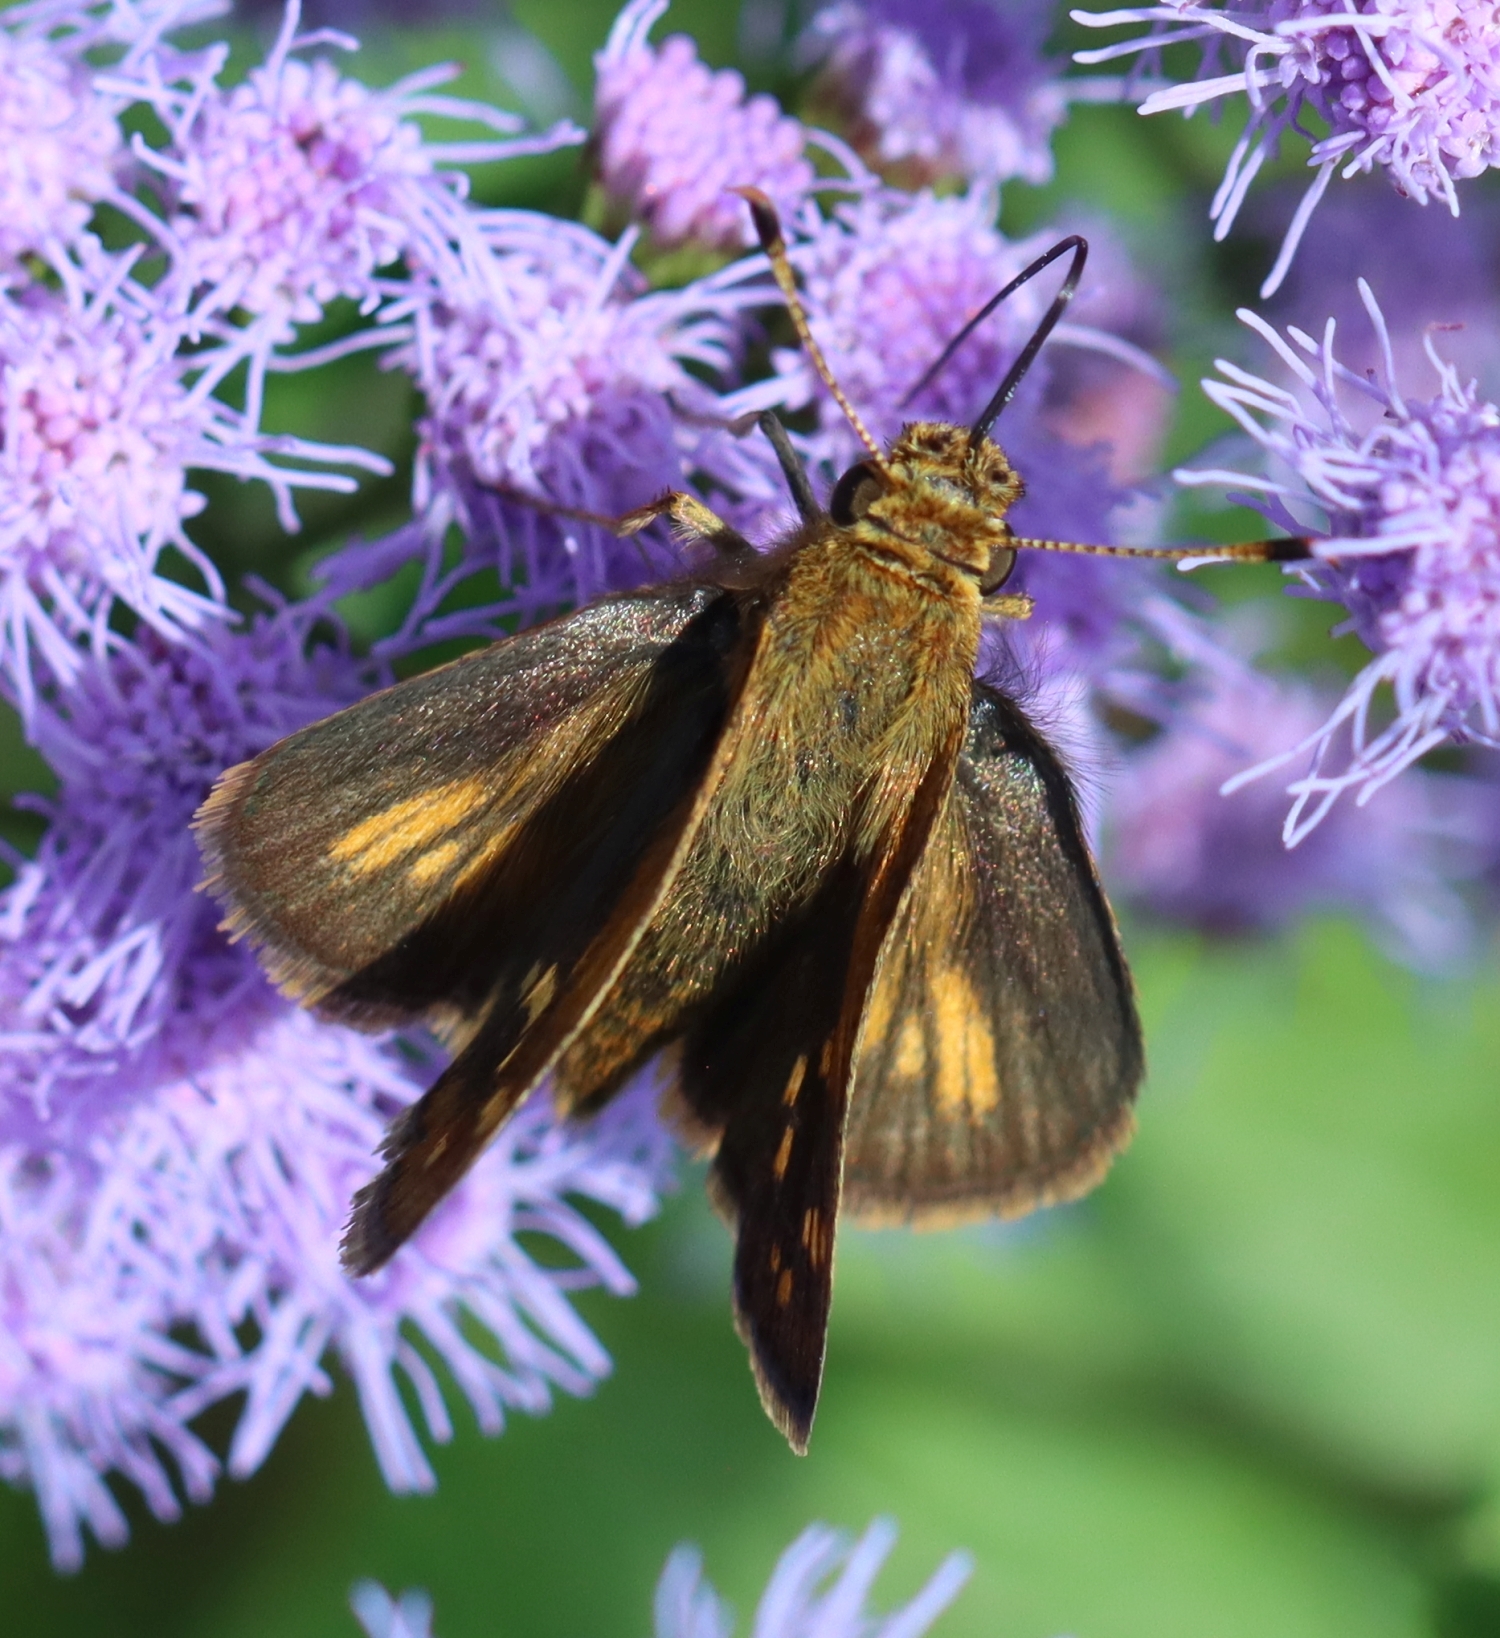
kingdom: Animalia
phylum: Arthropoda
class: Insecta
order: Lepidoptera
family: Hesperiidae
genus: Polites
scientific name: Polites coras
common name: Peck's skipper
